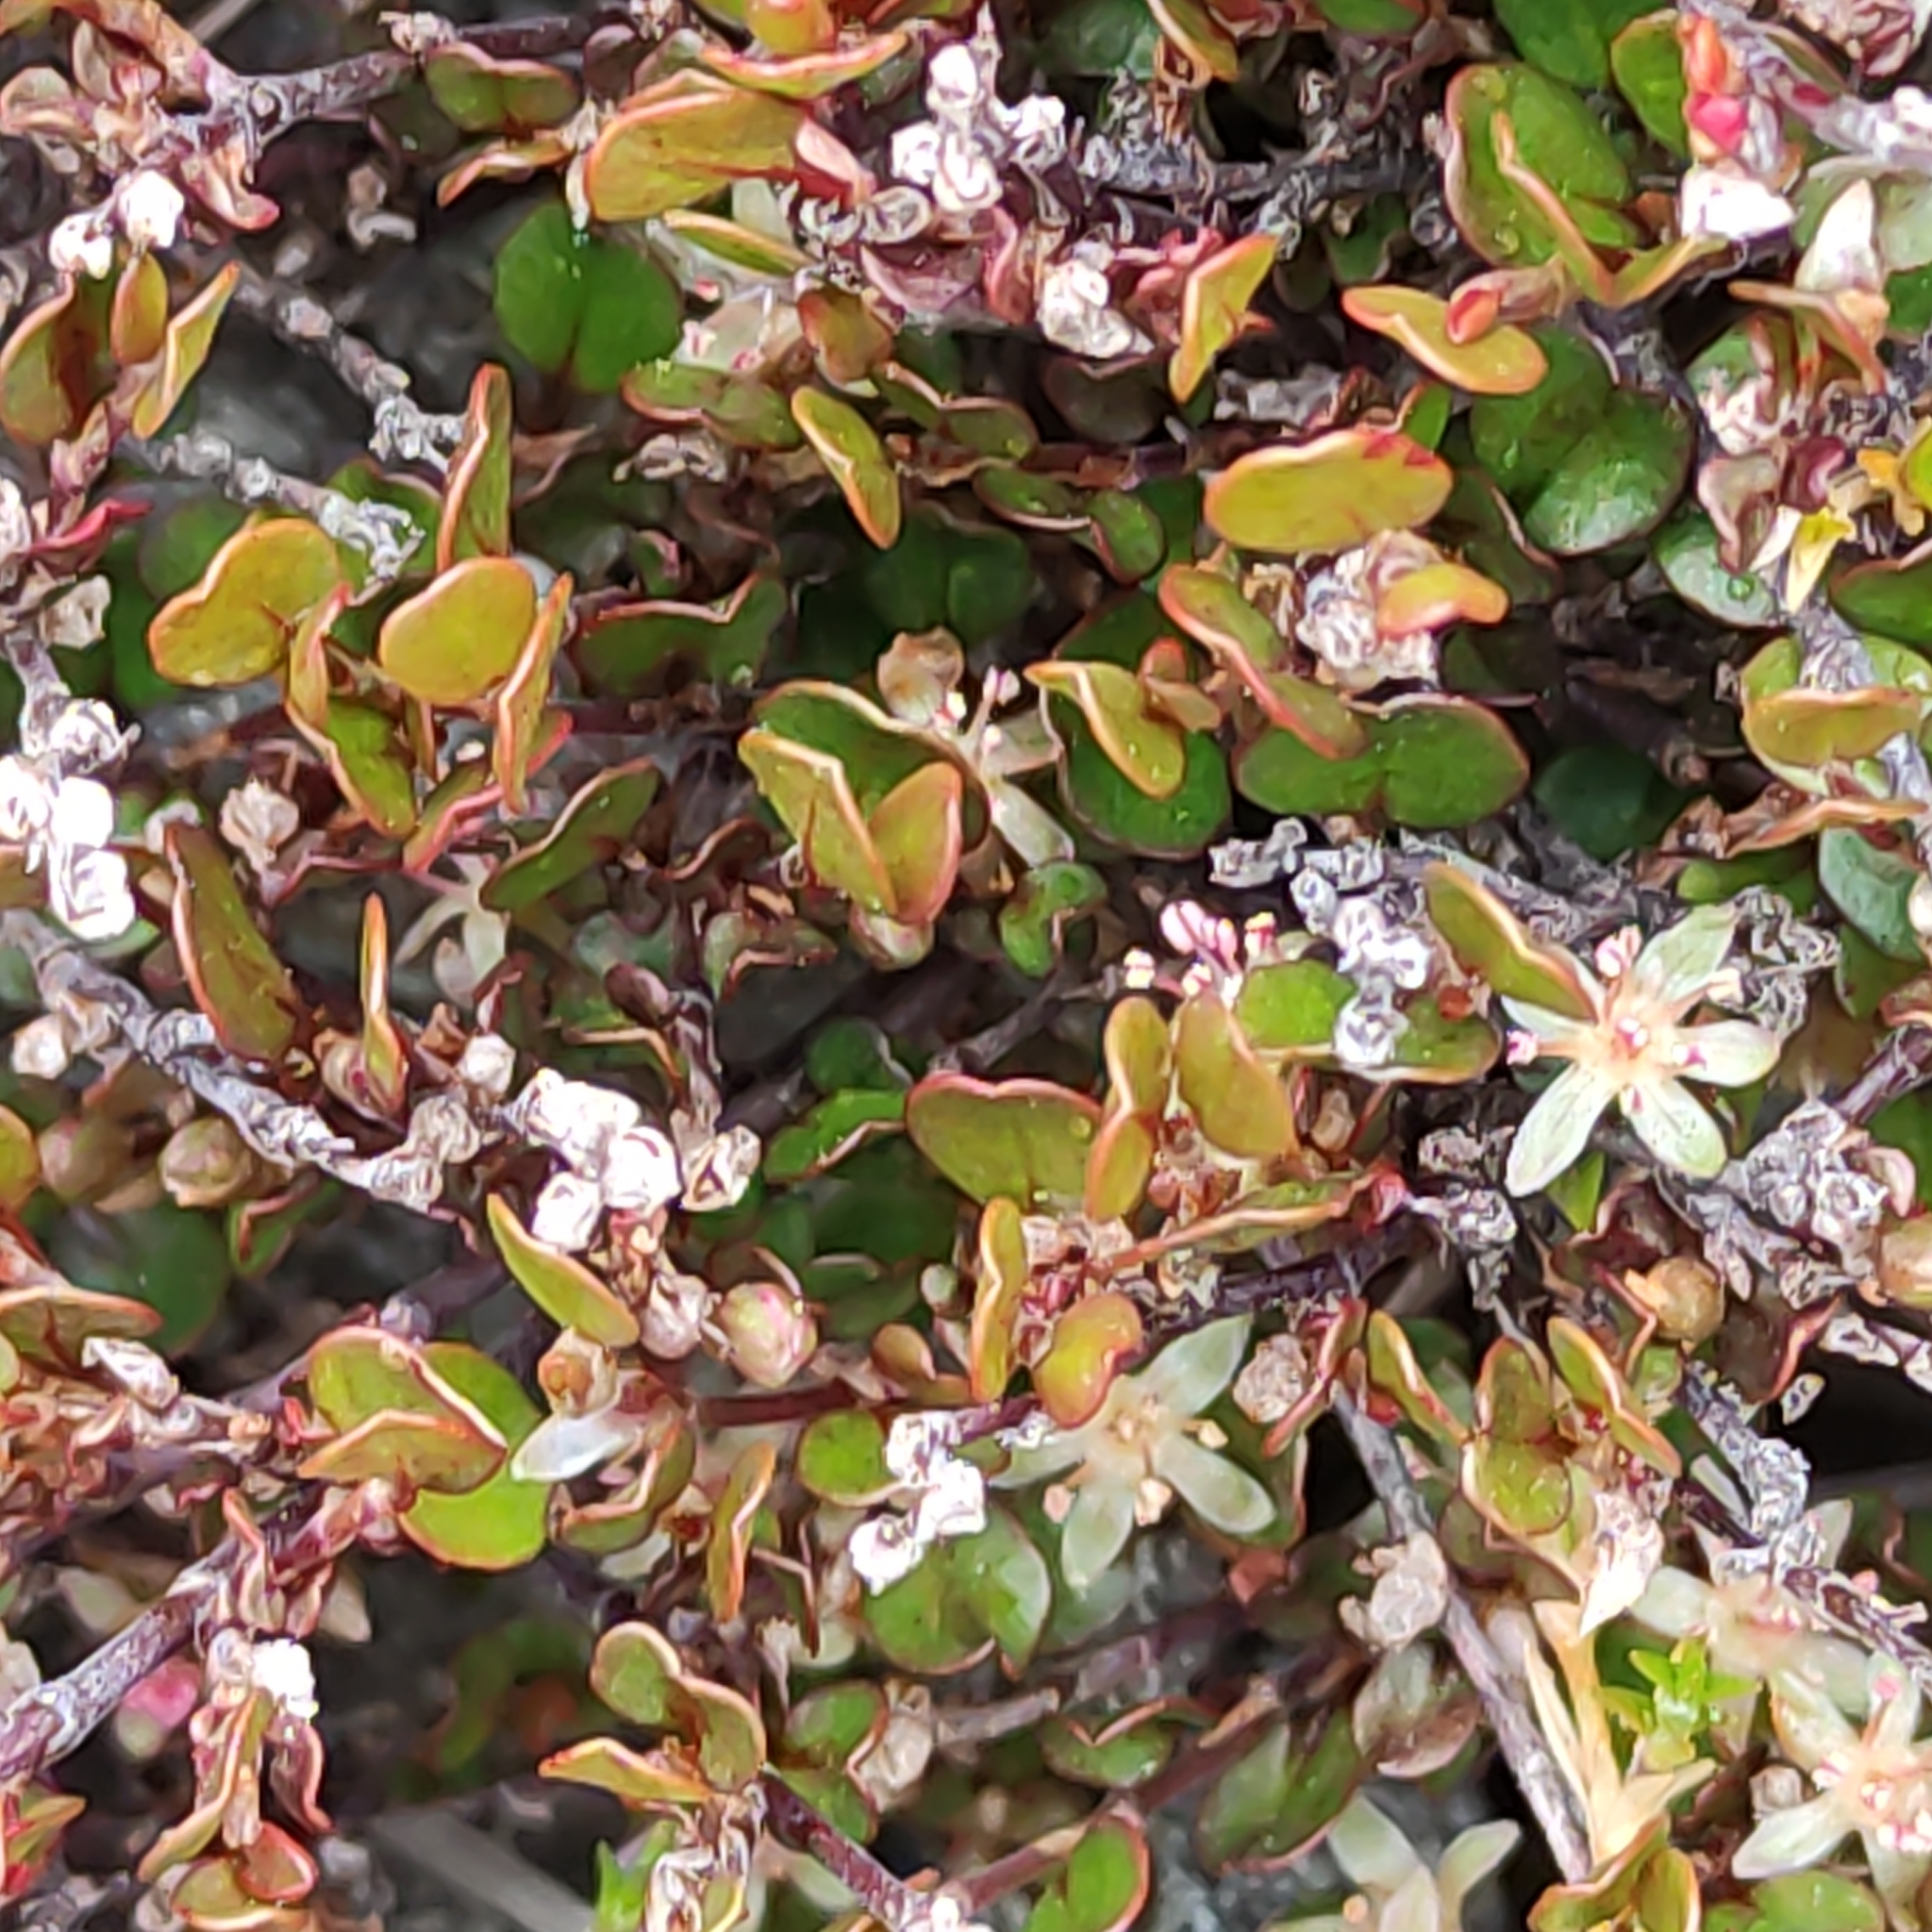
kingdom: Plantae
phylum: Tracheophyta
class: Magnoliopsida
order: Caryophyllales
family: Polygonaceae
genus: Muehlenbeckia
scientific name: Muehlenbeckia axillaris
